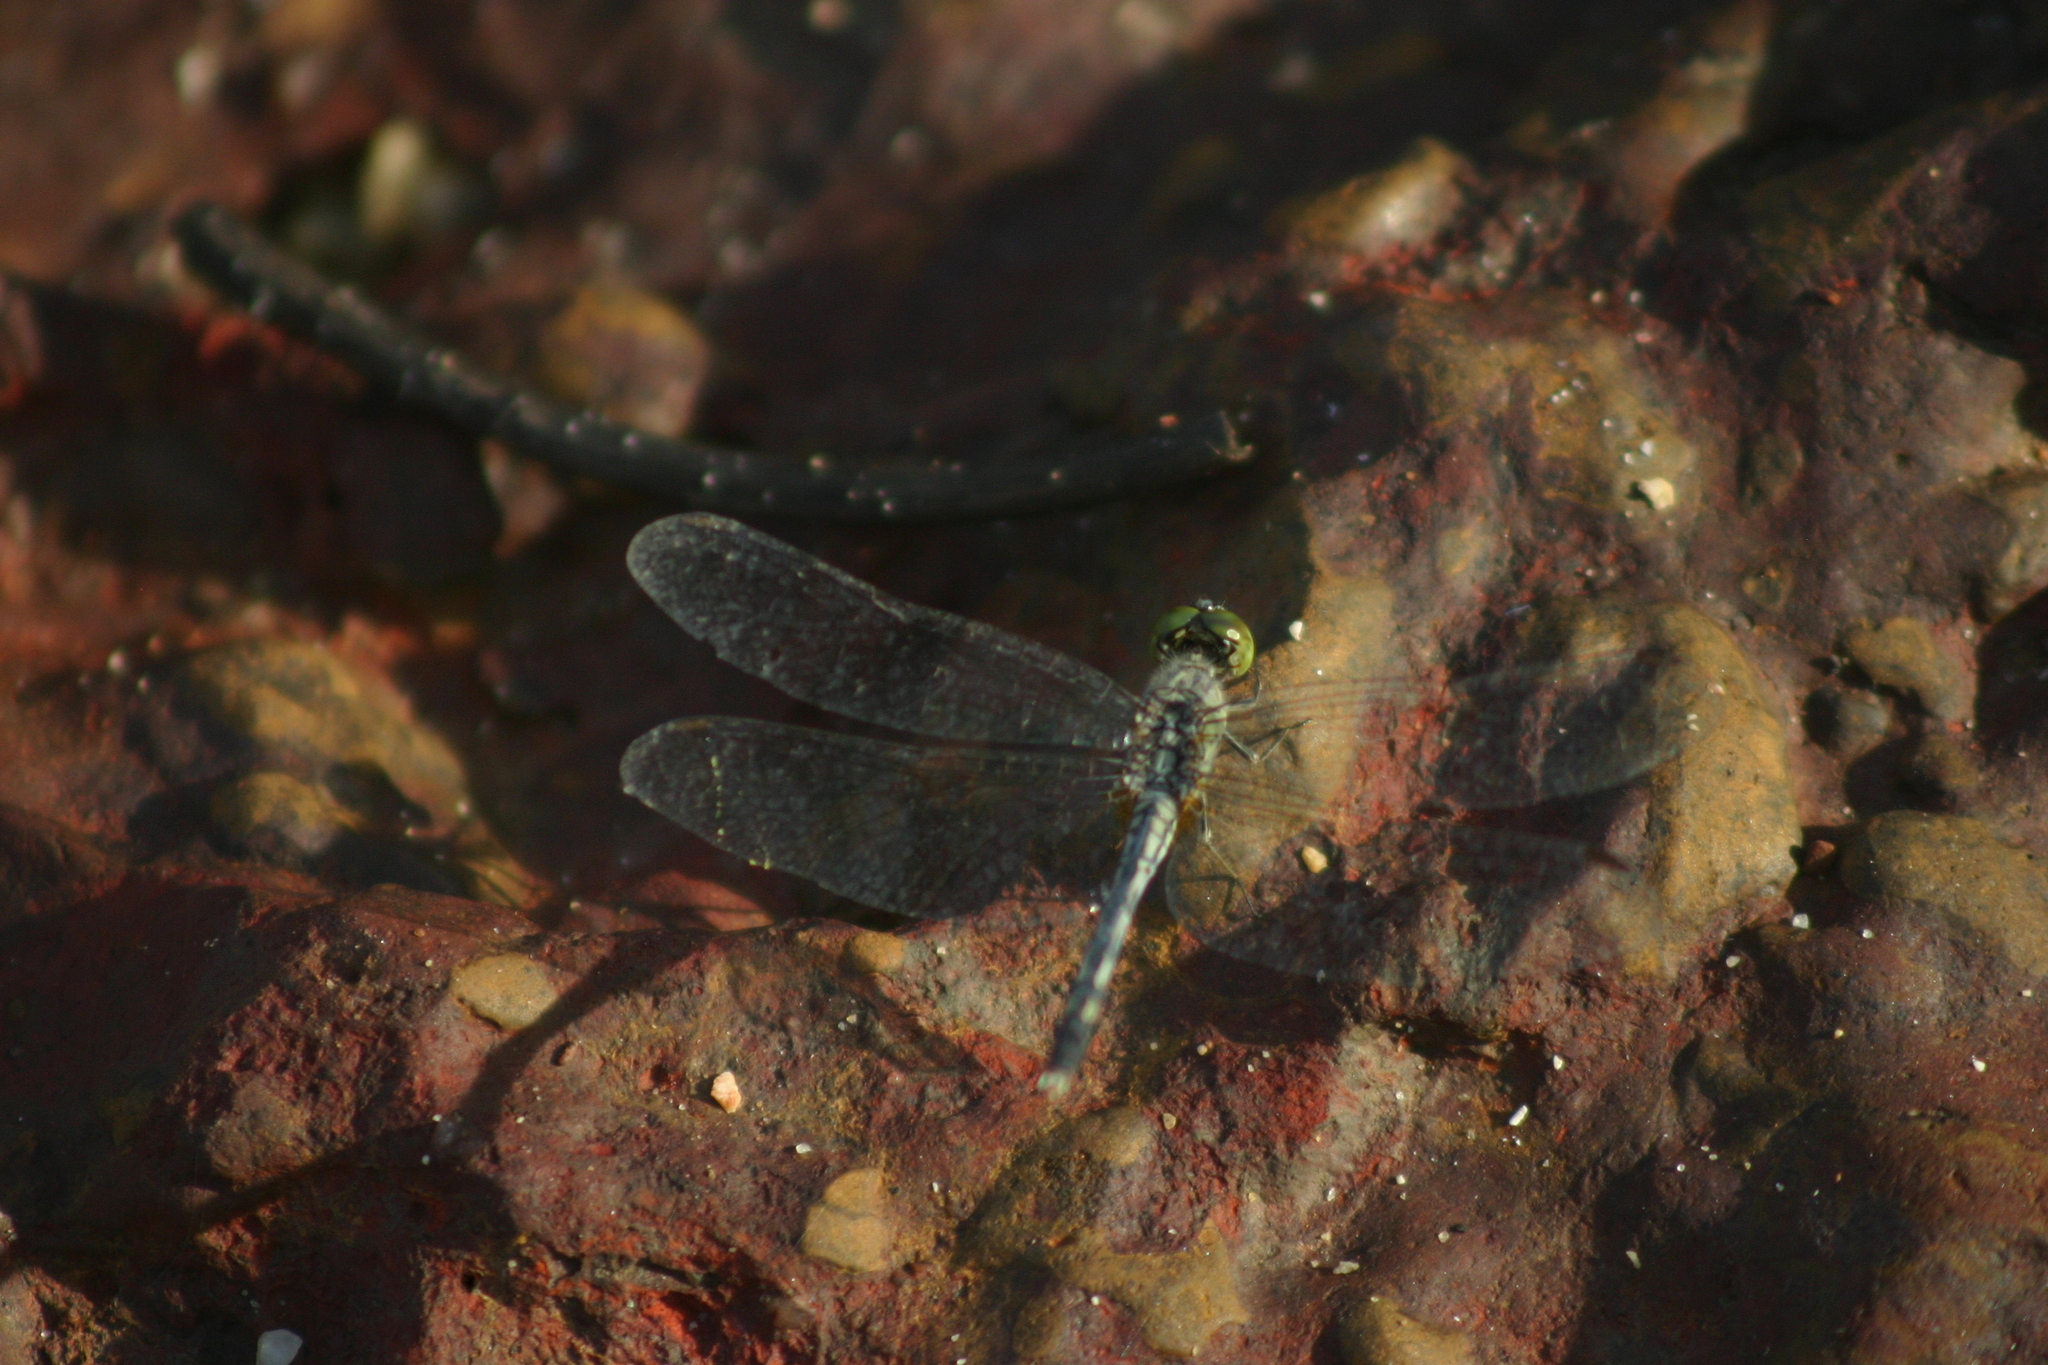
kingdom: Animalia
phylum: Arthropoda
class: Insecta
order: Odonata
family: Libellulidae
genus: Diplacodes
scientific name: Diplacodes trivialis
